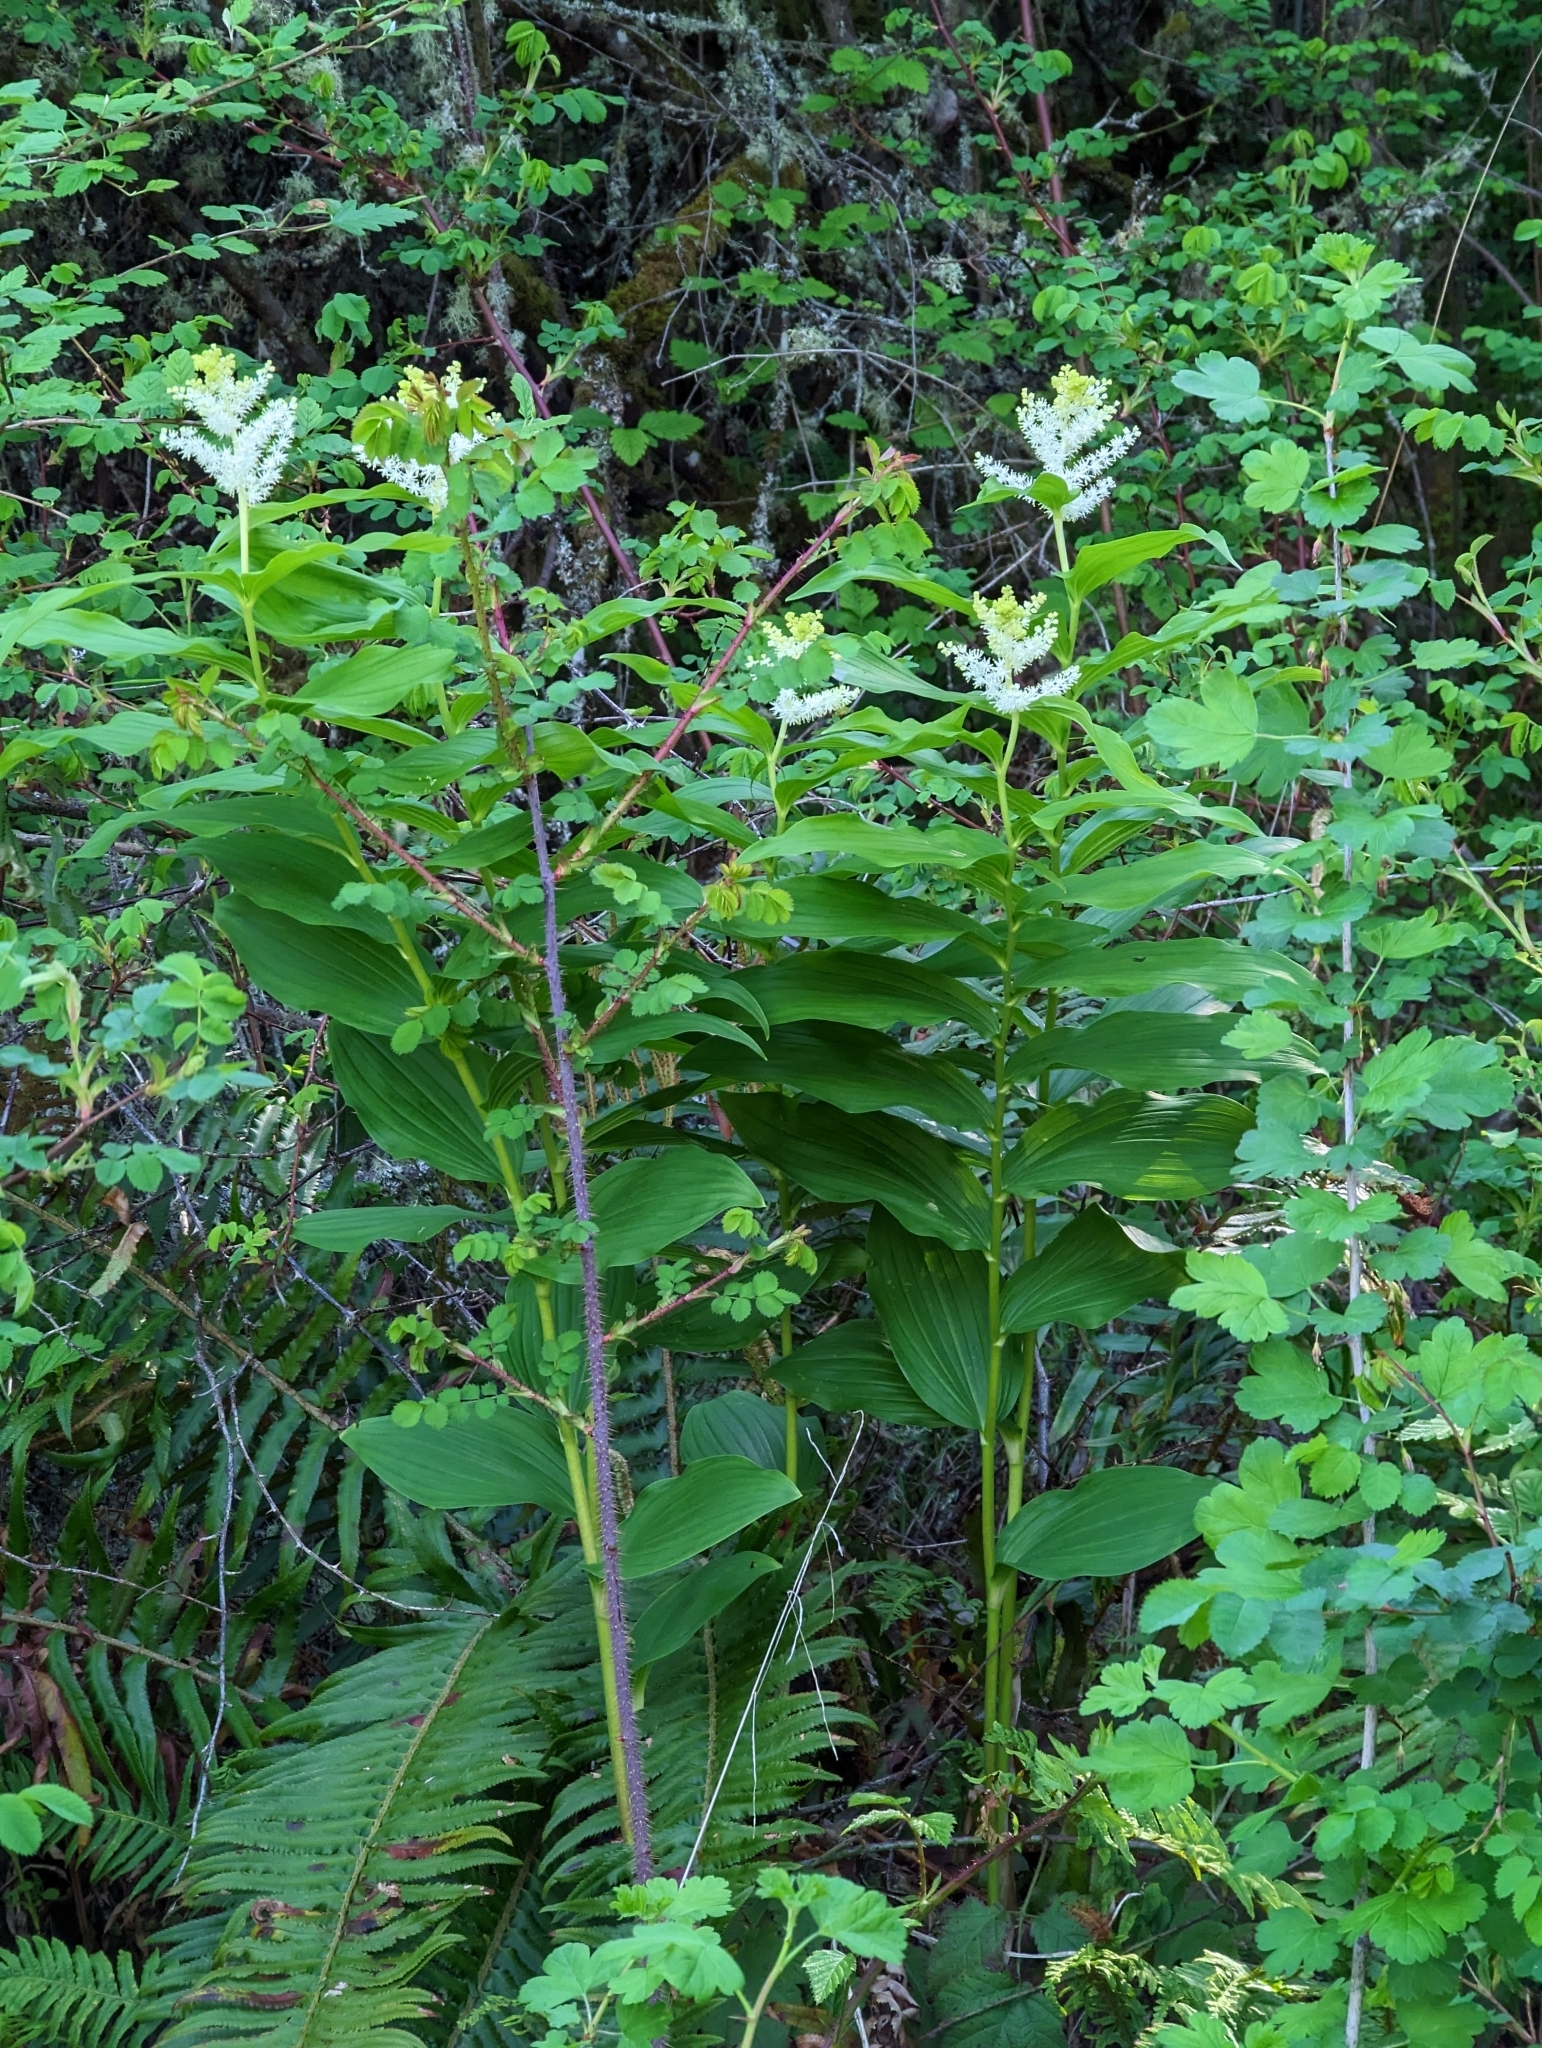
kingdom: Plantae
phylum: Tracheophyta
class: Liliopsida
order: Asparagales
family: Asparagaceae
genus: Maianthemum
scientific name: Maianthemum racemosum
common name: False spikenard
